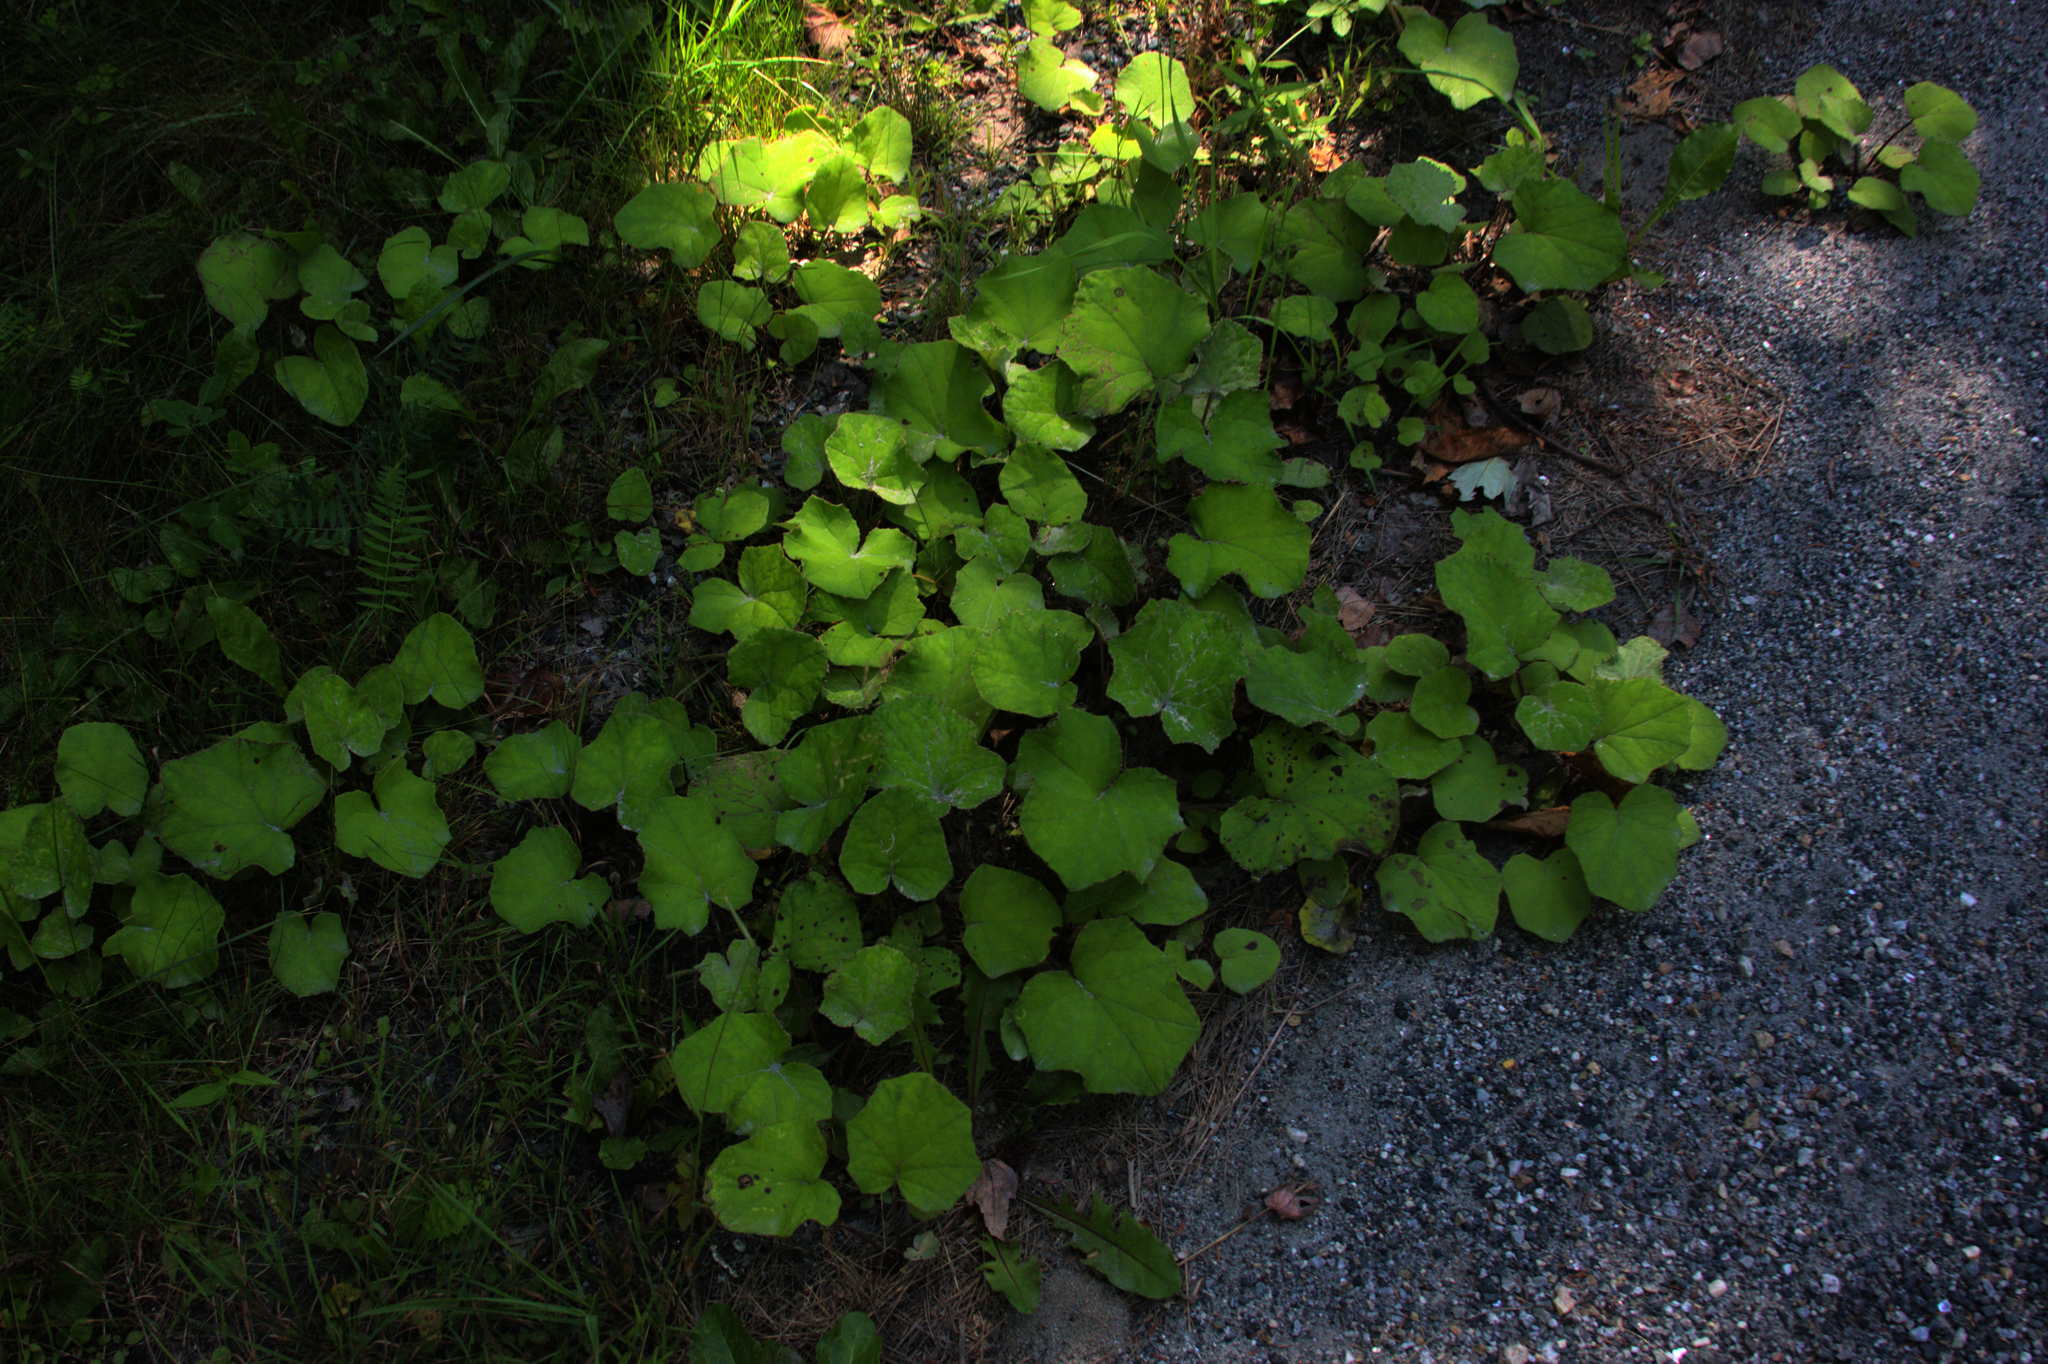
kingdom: Plantae
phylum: Tracheophyta
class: Magnoliopsida
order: Asterales
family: Asteraceae
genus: Tussilago
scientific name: Tussilago farfara
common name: Coltsfoot
